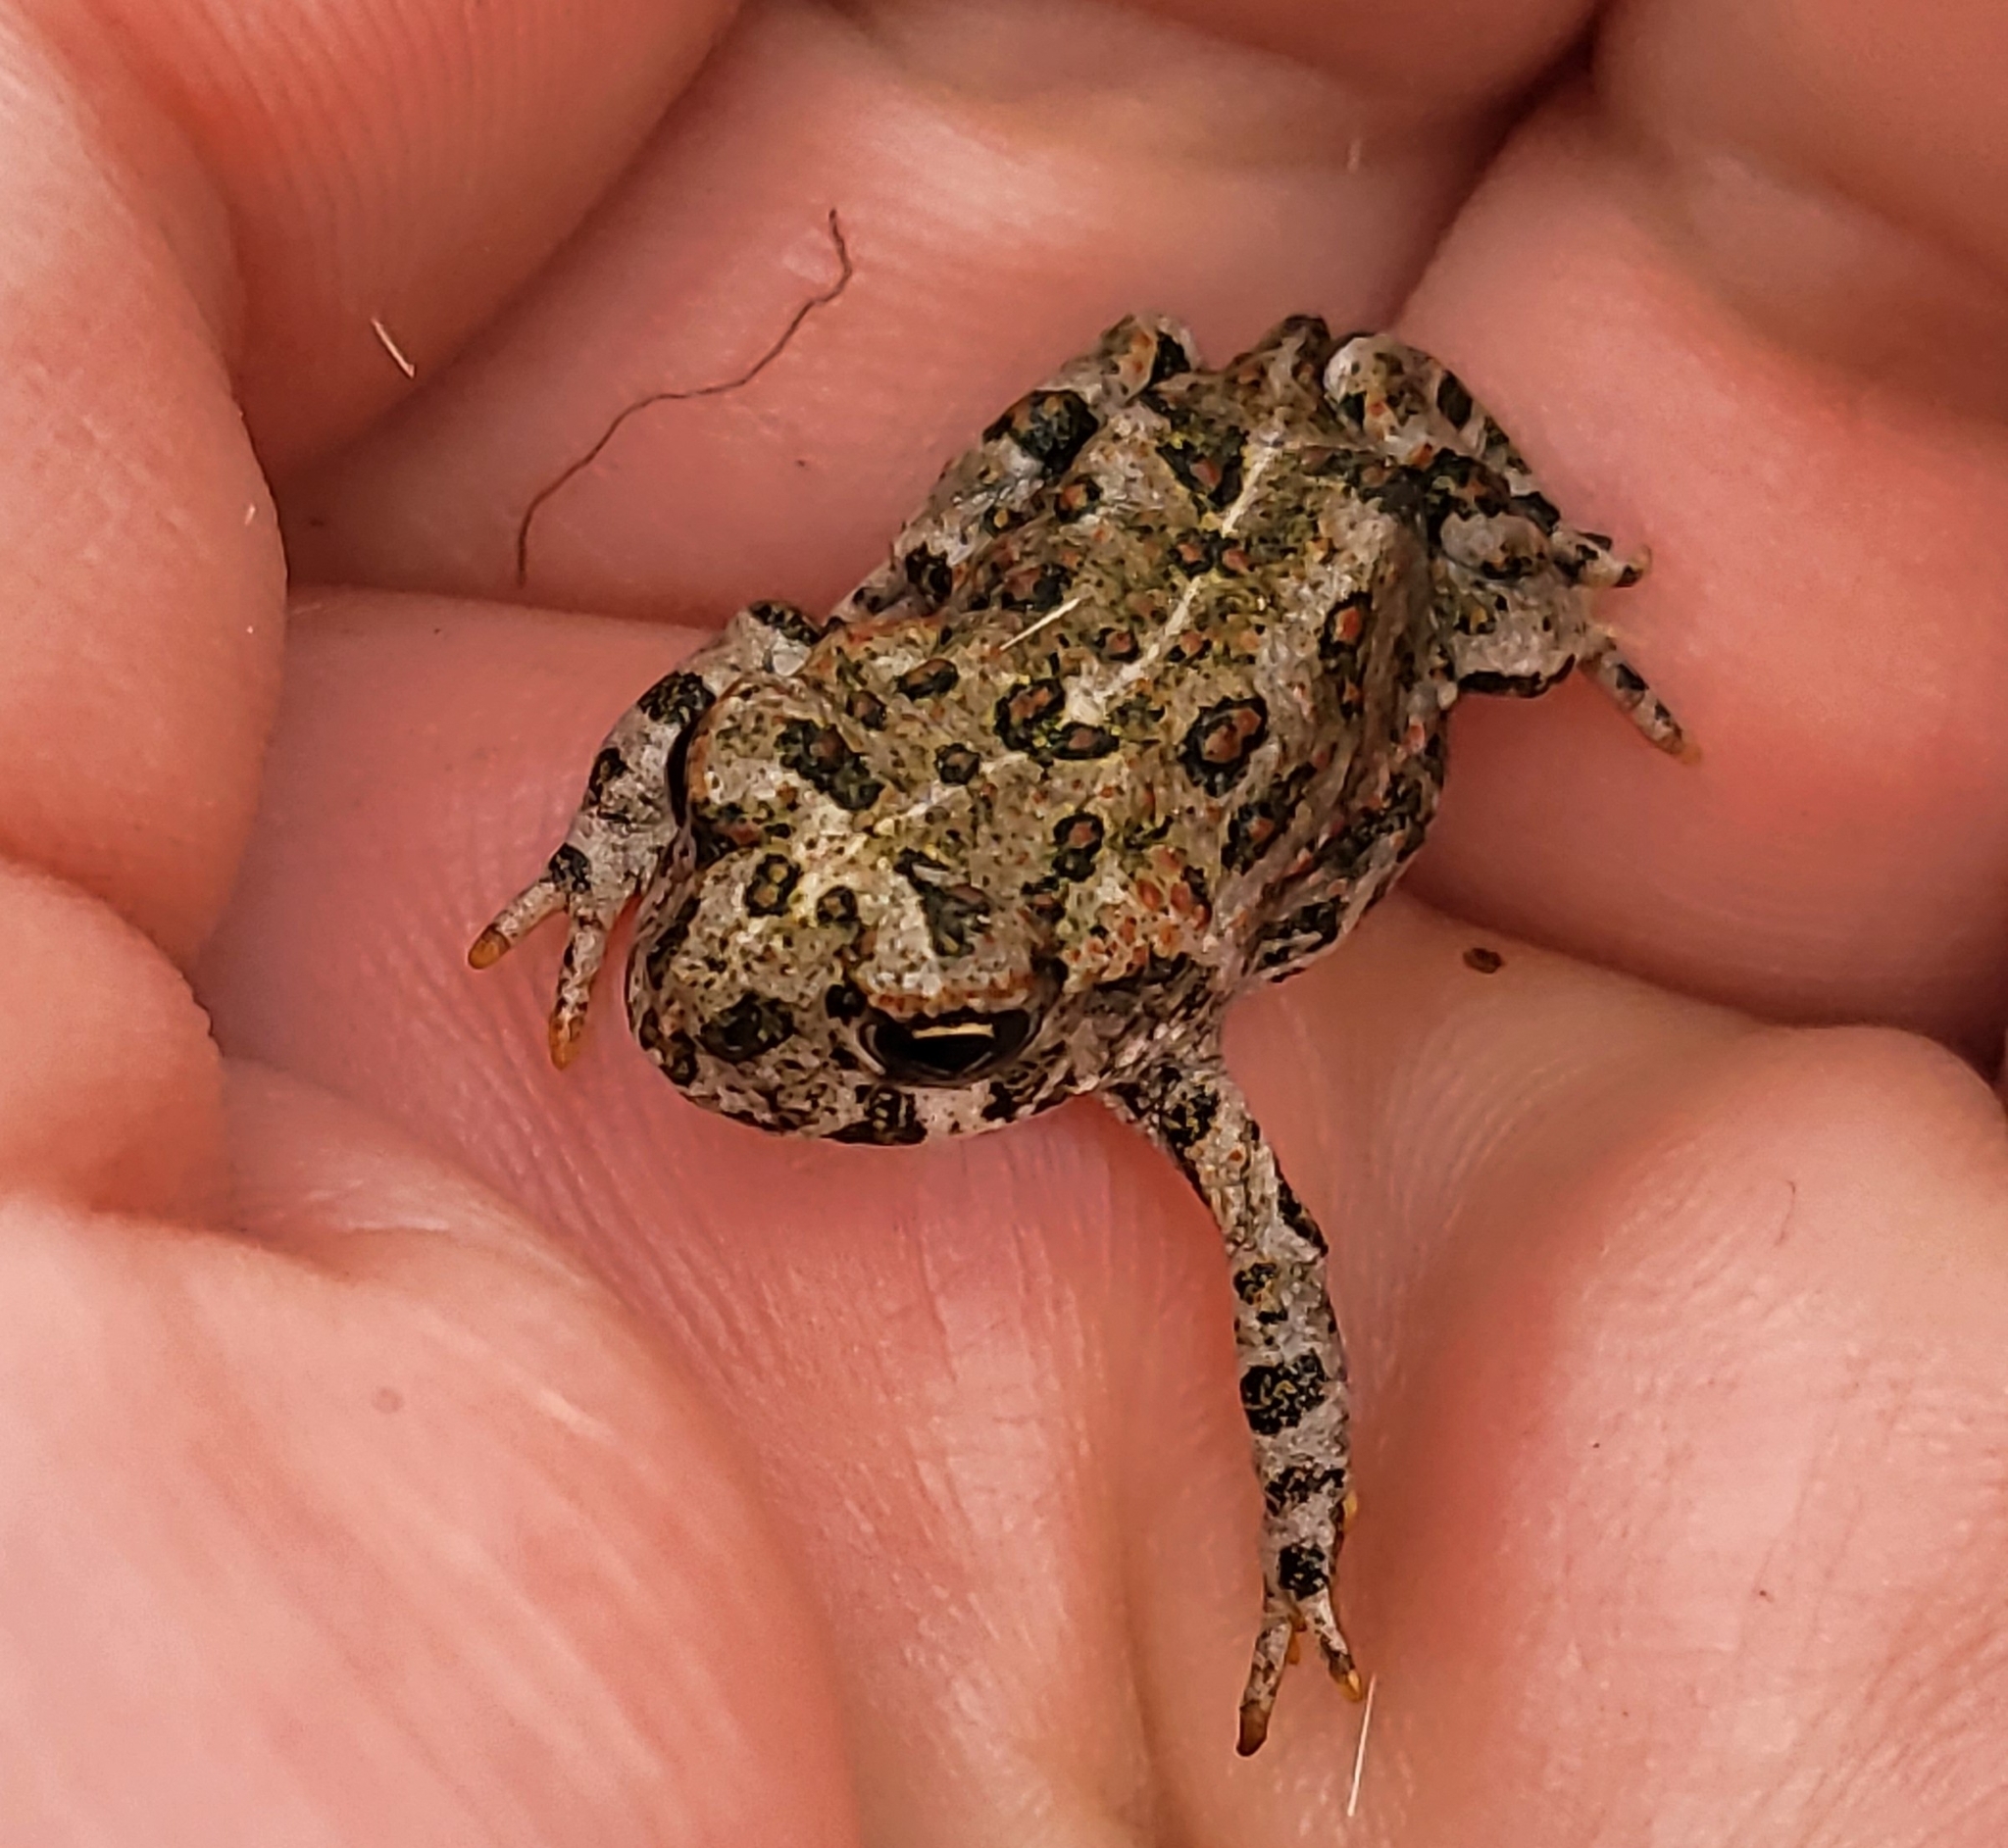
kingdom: Animalia
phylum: Chordata
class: Amphibia
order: Anura
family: Bufonidae
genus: Anaxyrus
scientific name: Anaxyrus boreas
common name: Western toad
